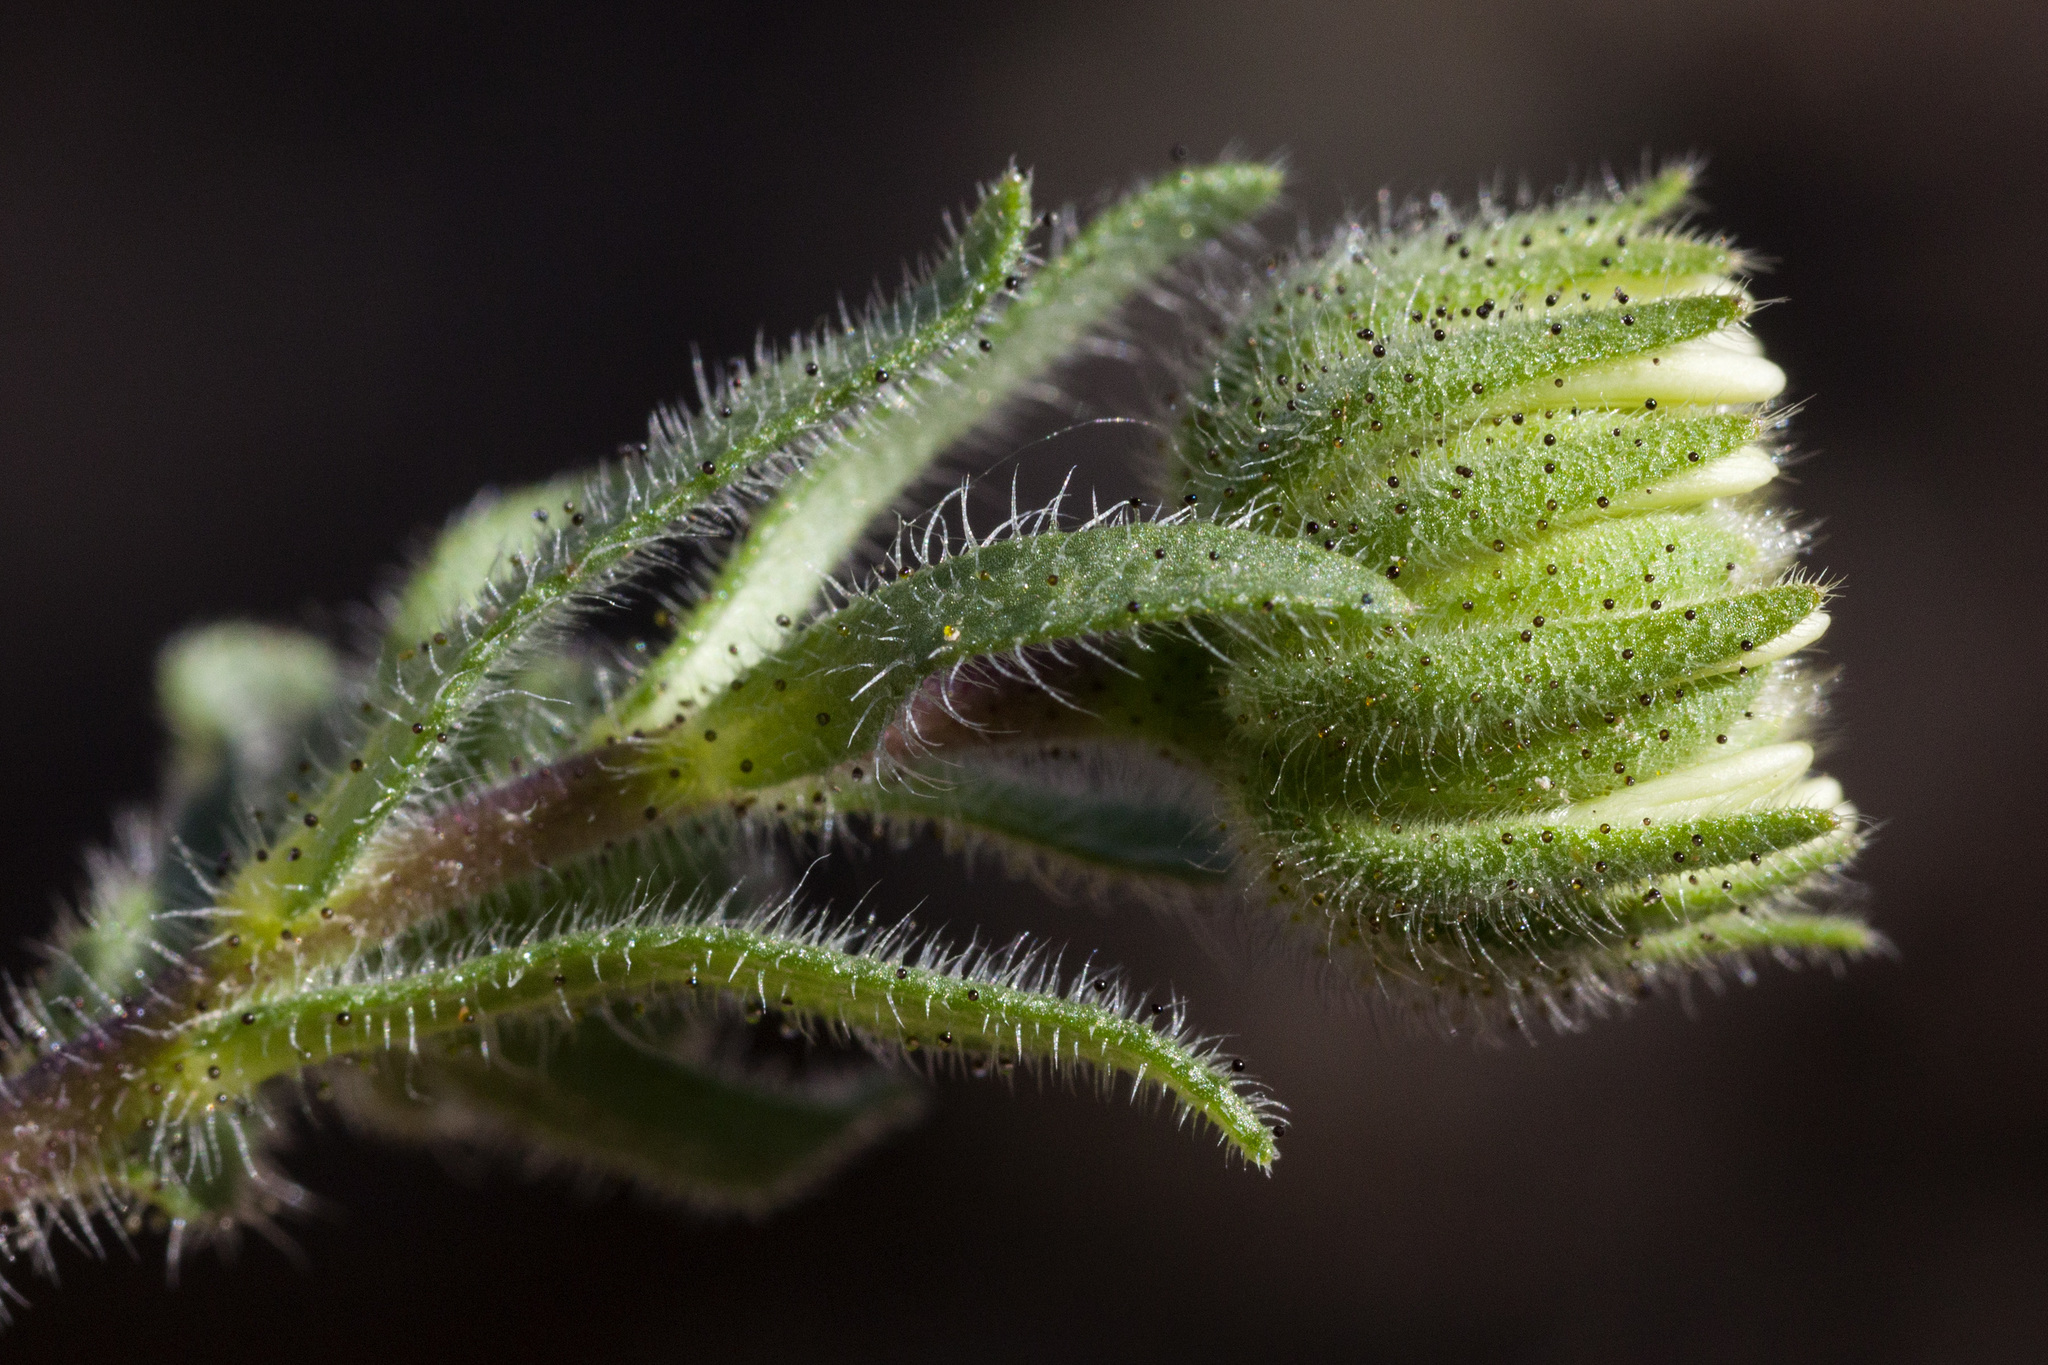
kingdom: Plantae
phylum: Tracheophyta
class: Magnoliopsida
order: Asterales
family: Asteraceae
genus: Layia
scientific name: Layia glandulosa
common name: White layia
